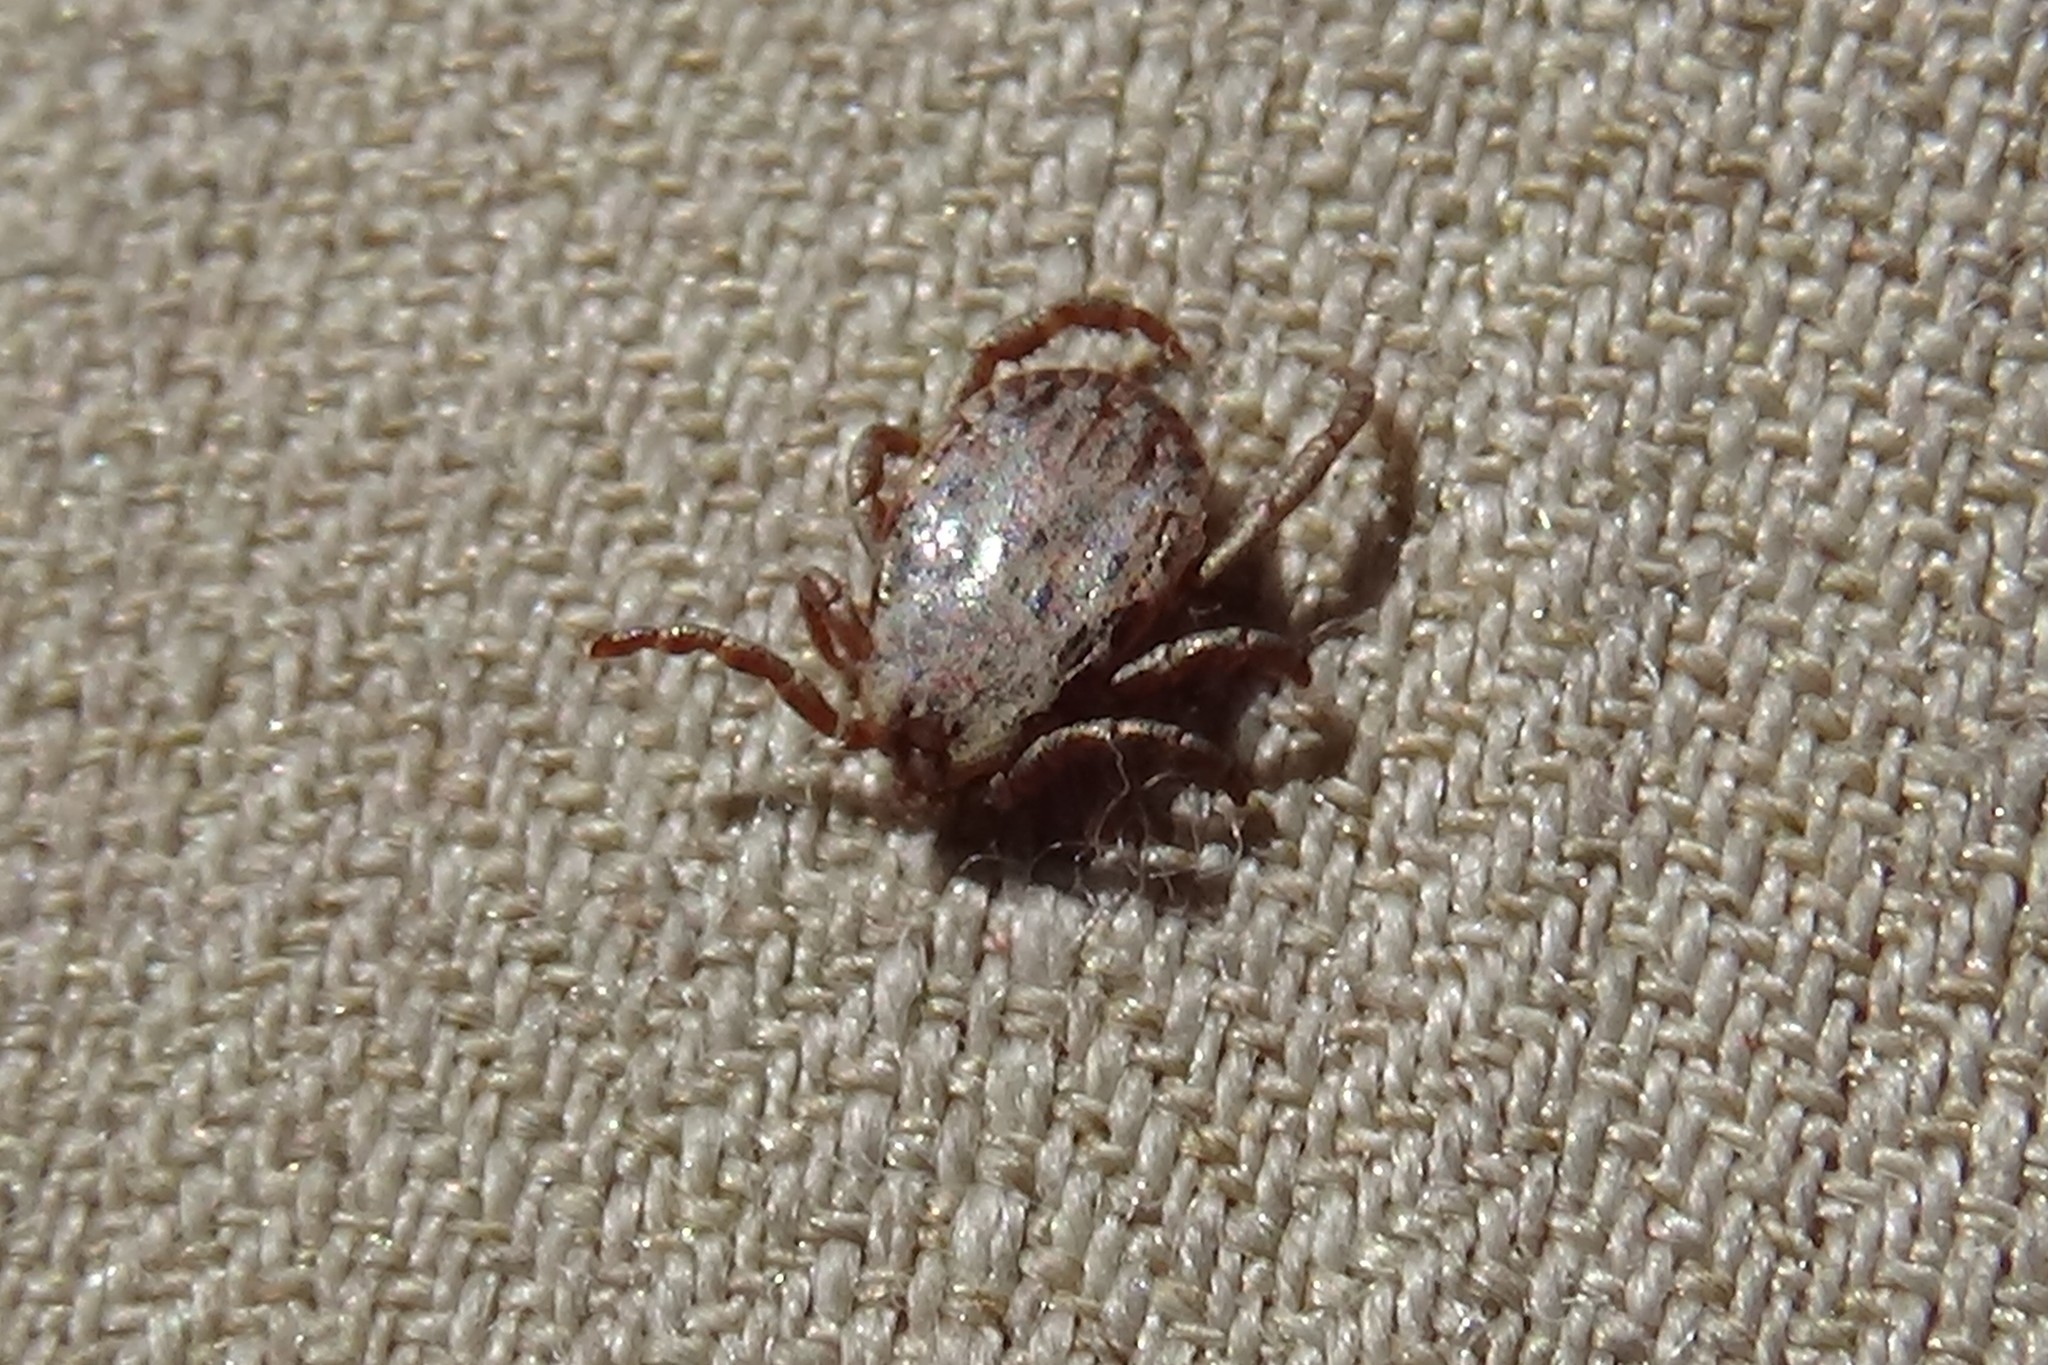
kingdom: Animalia
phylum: Arthropoda
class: Arachnida
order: Ixodida
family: Ixodidae
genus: Dermacentor
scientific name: Dermacentor occidentalis
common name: Net tick
